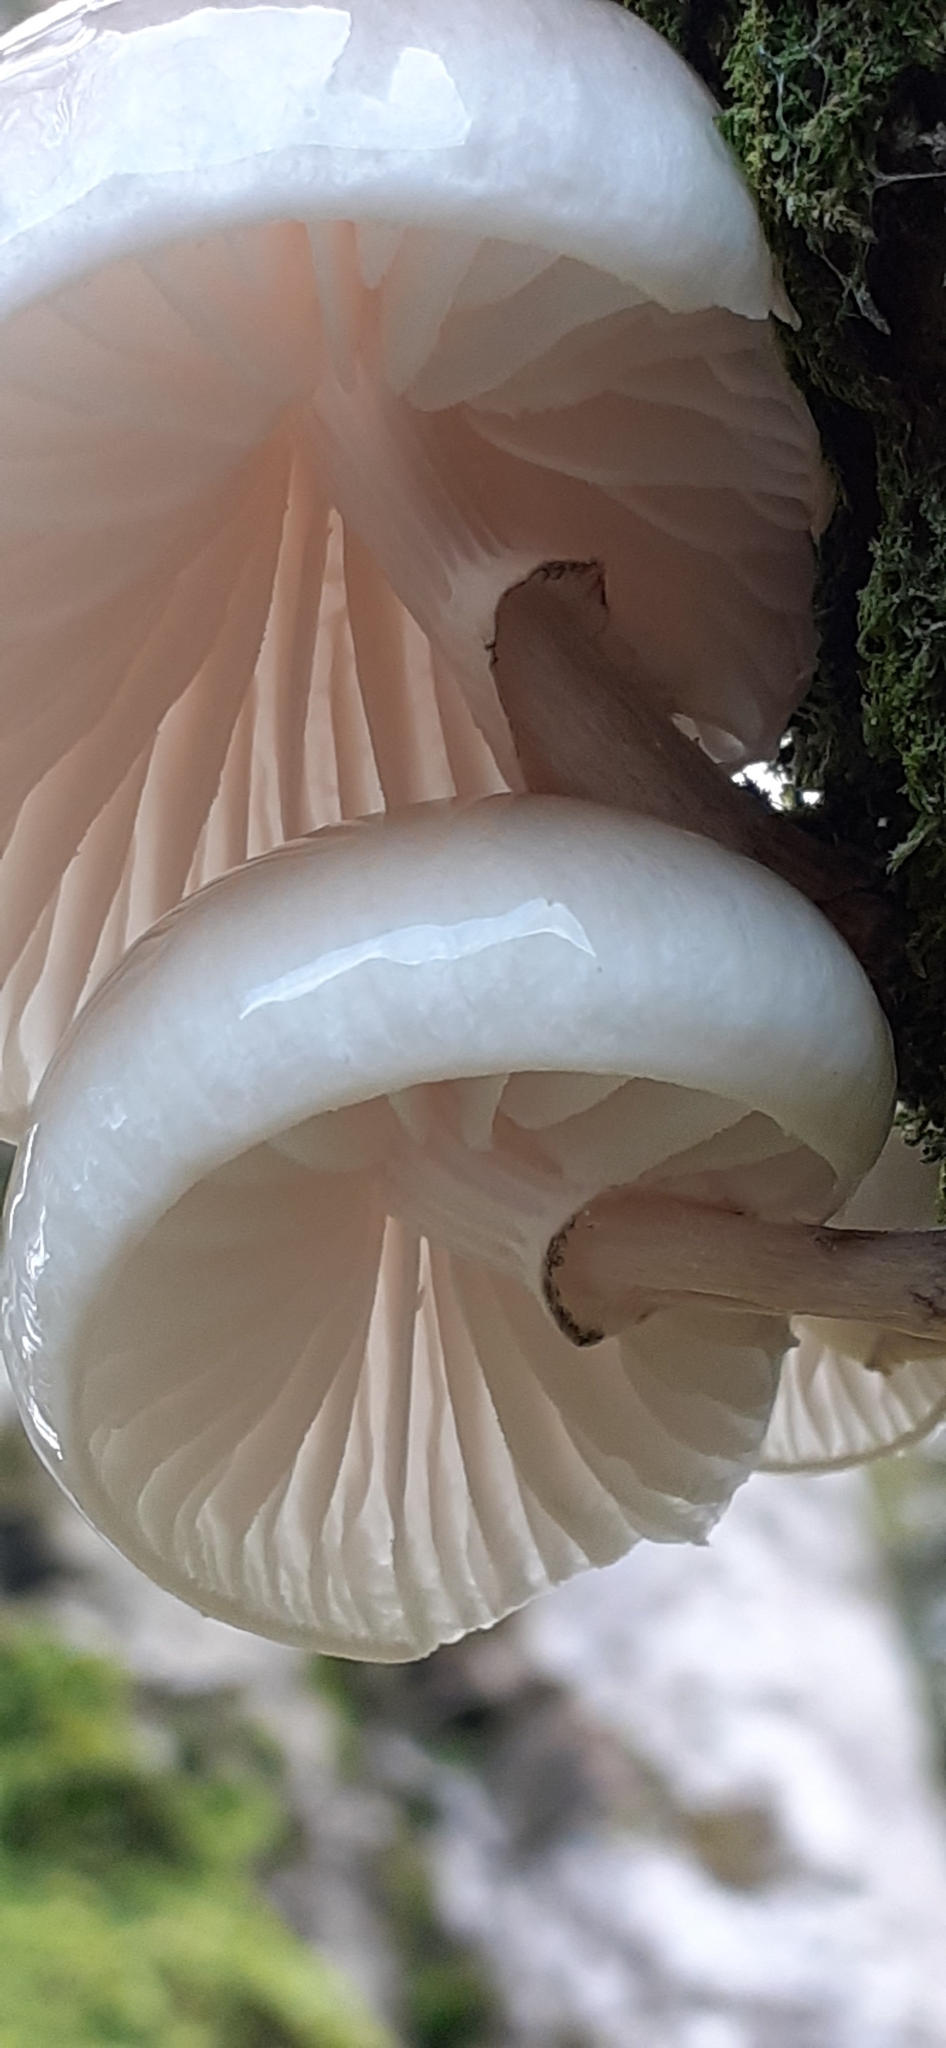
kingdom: Fungi
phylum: Basidiomycota
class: Agaricomycetes
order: Agaricales
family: Physalacriaceae
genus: Mucidula
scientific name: Mucidula mucida
